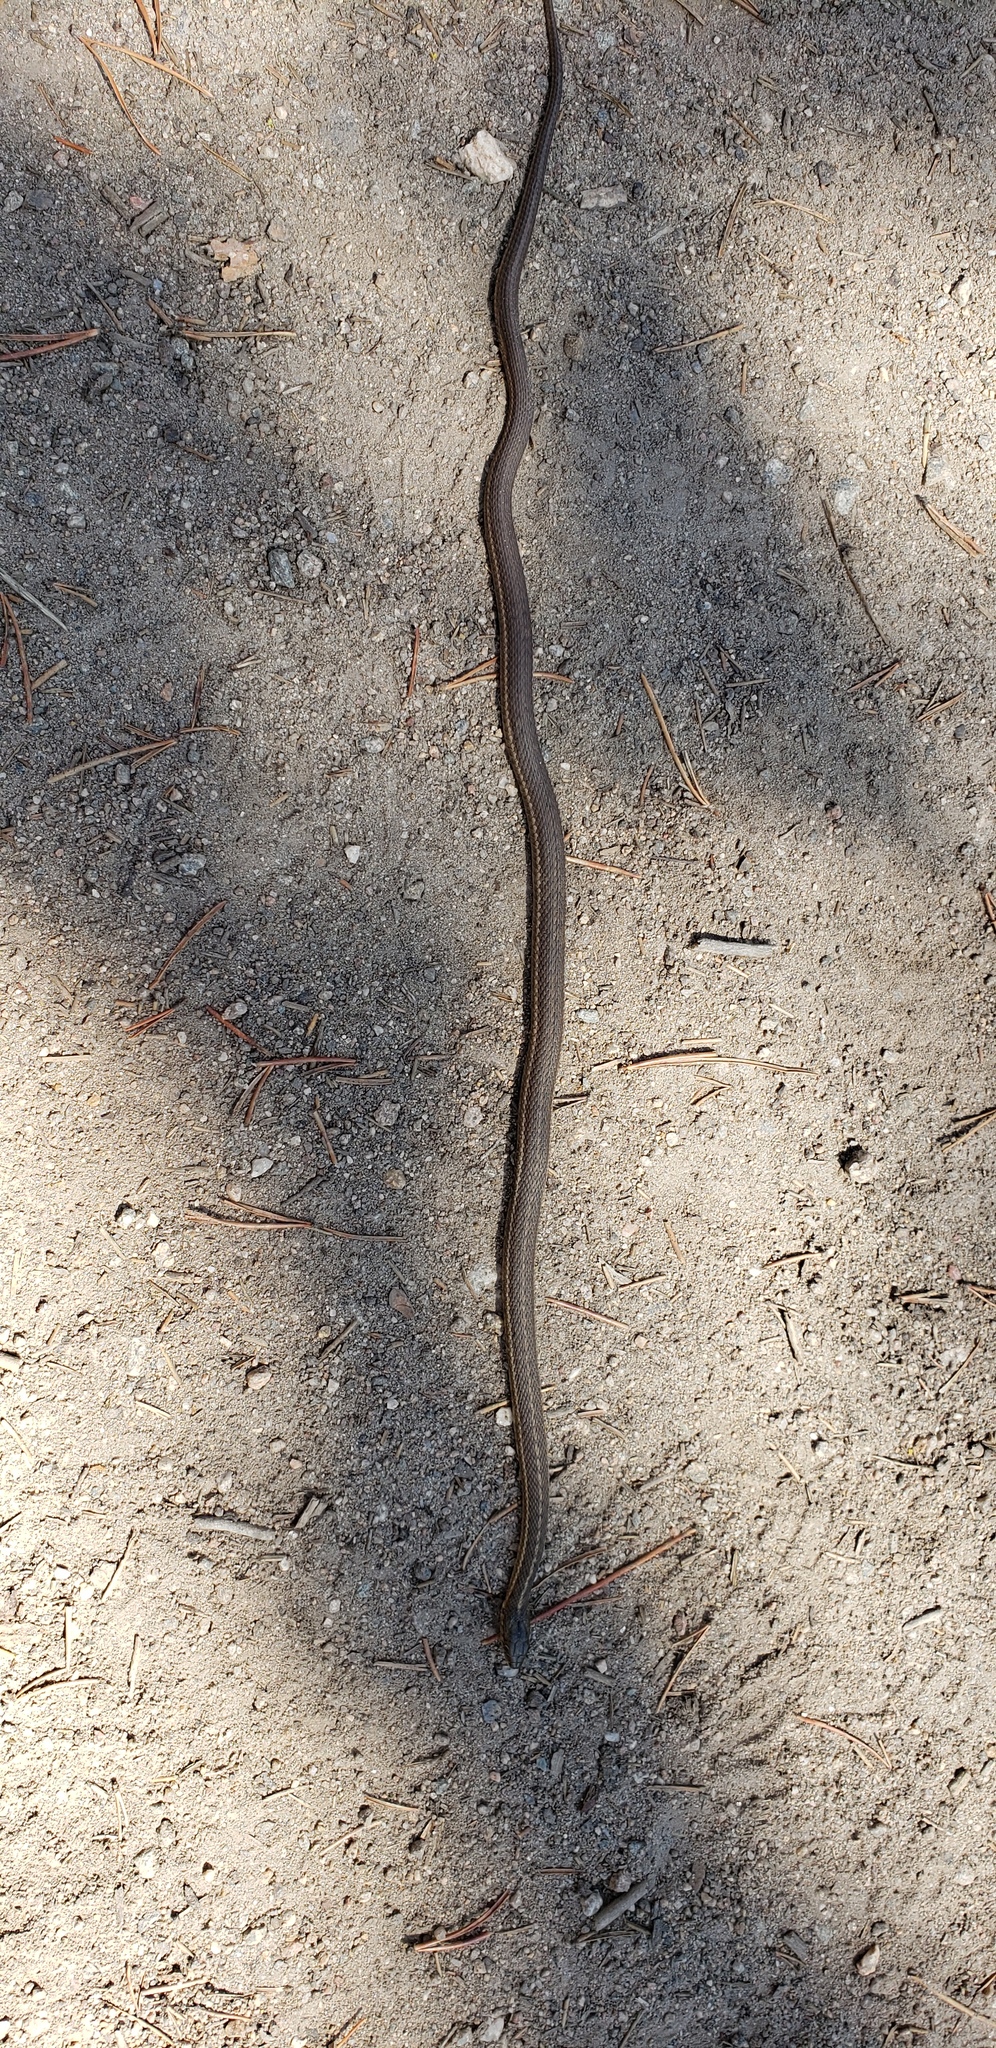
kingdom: Animalia
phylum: Chordata
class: Squamata
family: Colubridae
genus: Thamnophis
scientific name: Thamnophis elegans
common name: Western terrestrial garter snake
